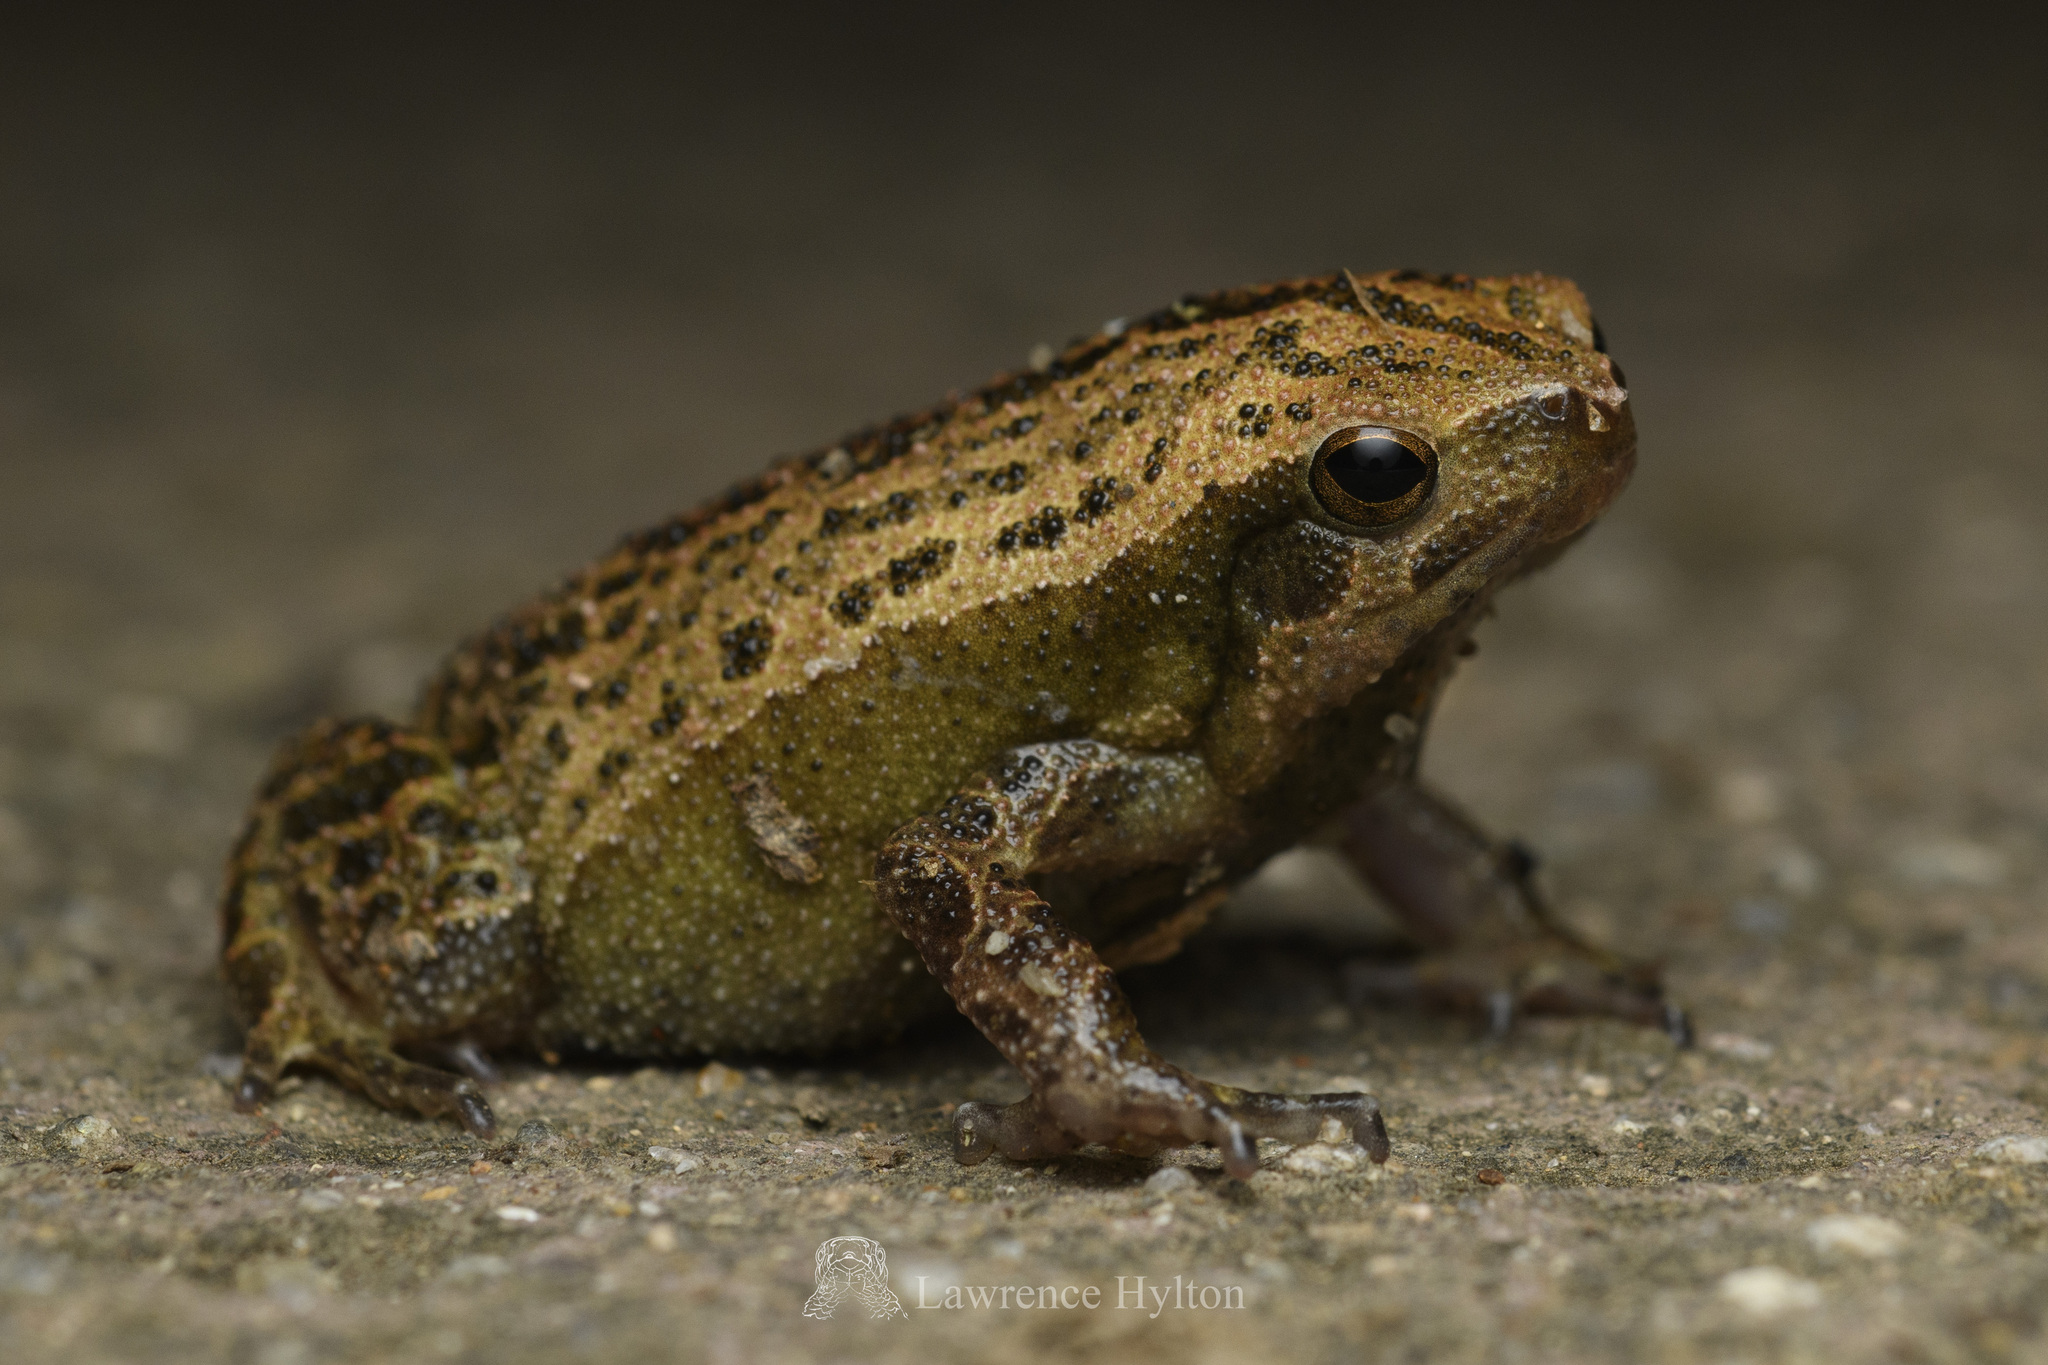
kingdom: Animalia
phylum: Chordata
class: Amphibia
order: Anura
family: Microhylidae
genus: Kalophrynus
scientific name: Kalophrynus interlineatus
